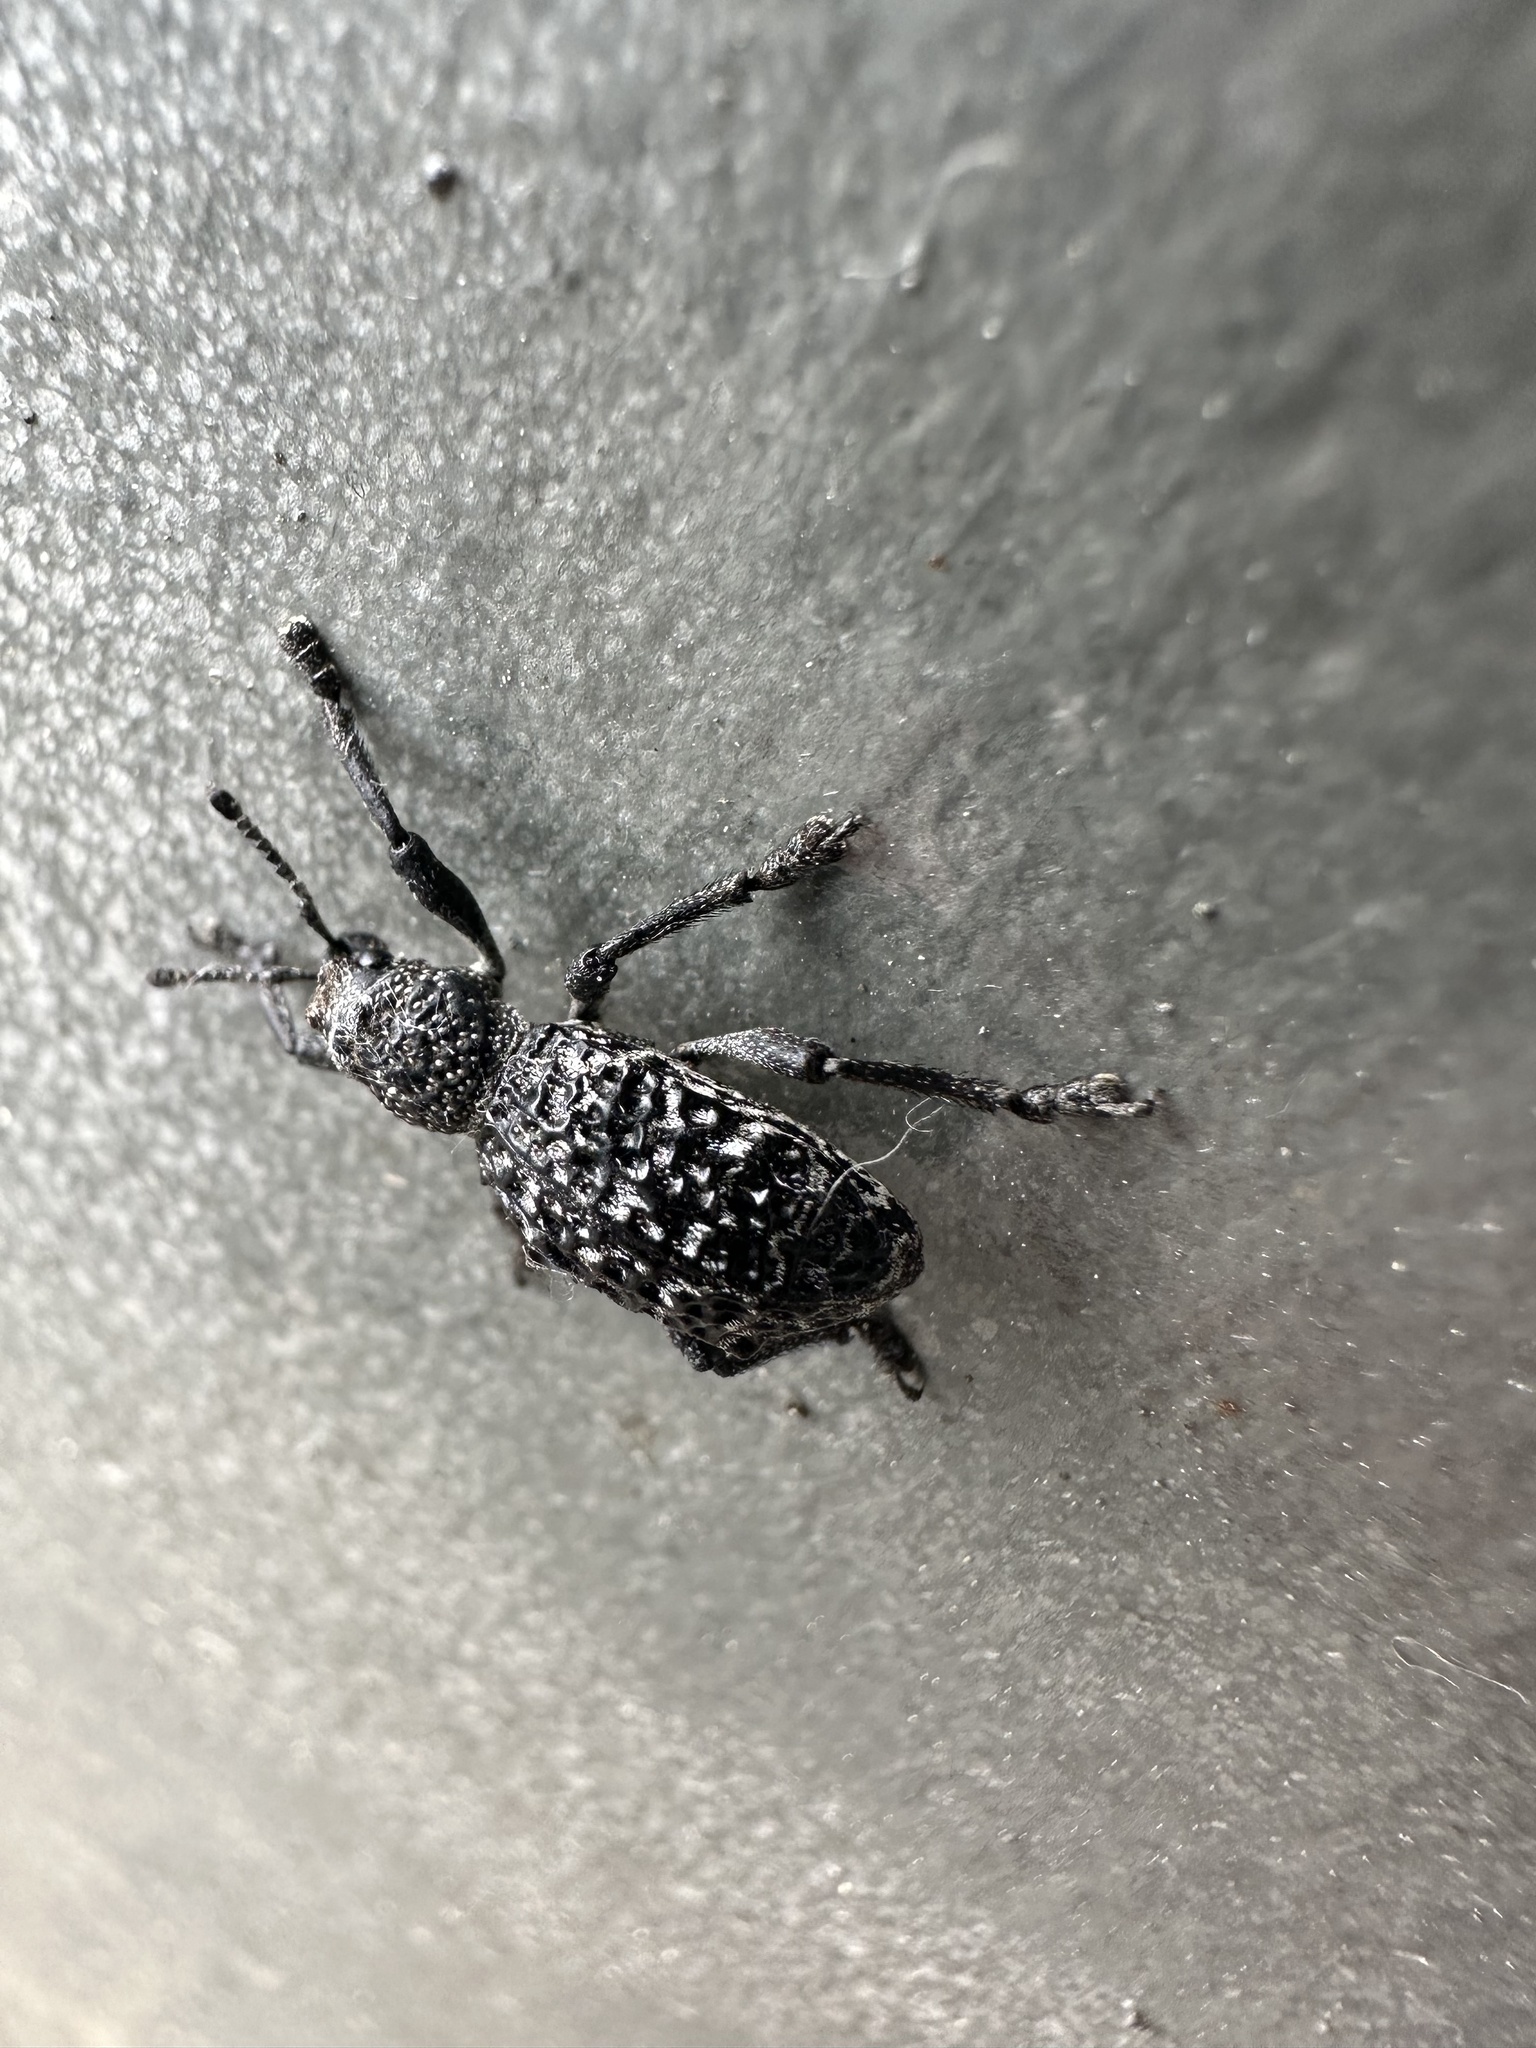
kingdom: Animalia
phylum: Arthropoda
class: Insecta
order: Coleoptera
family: Curculionidae
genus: Aegorhinus
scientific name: Aegorhinus superciliosus
